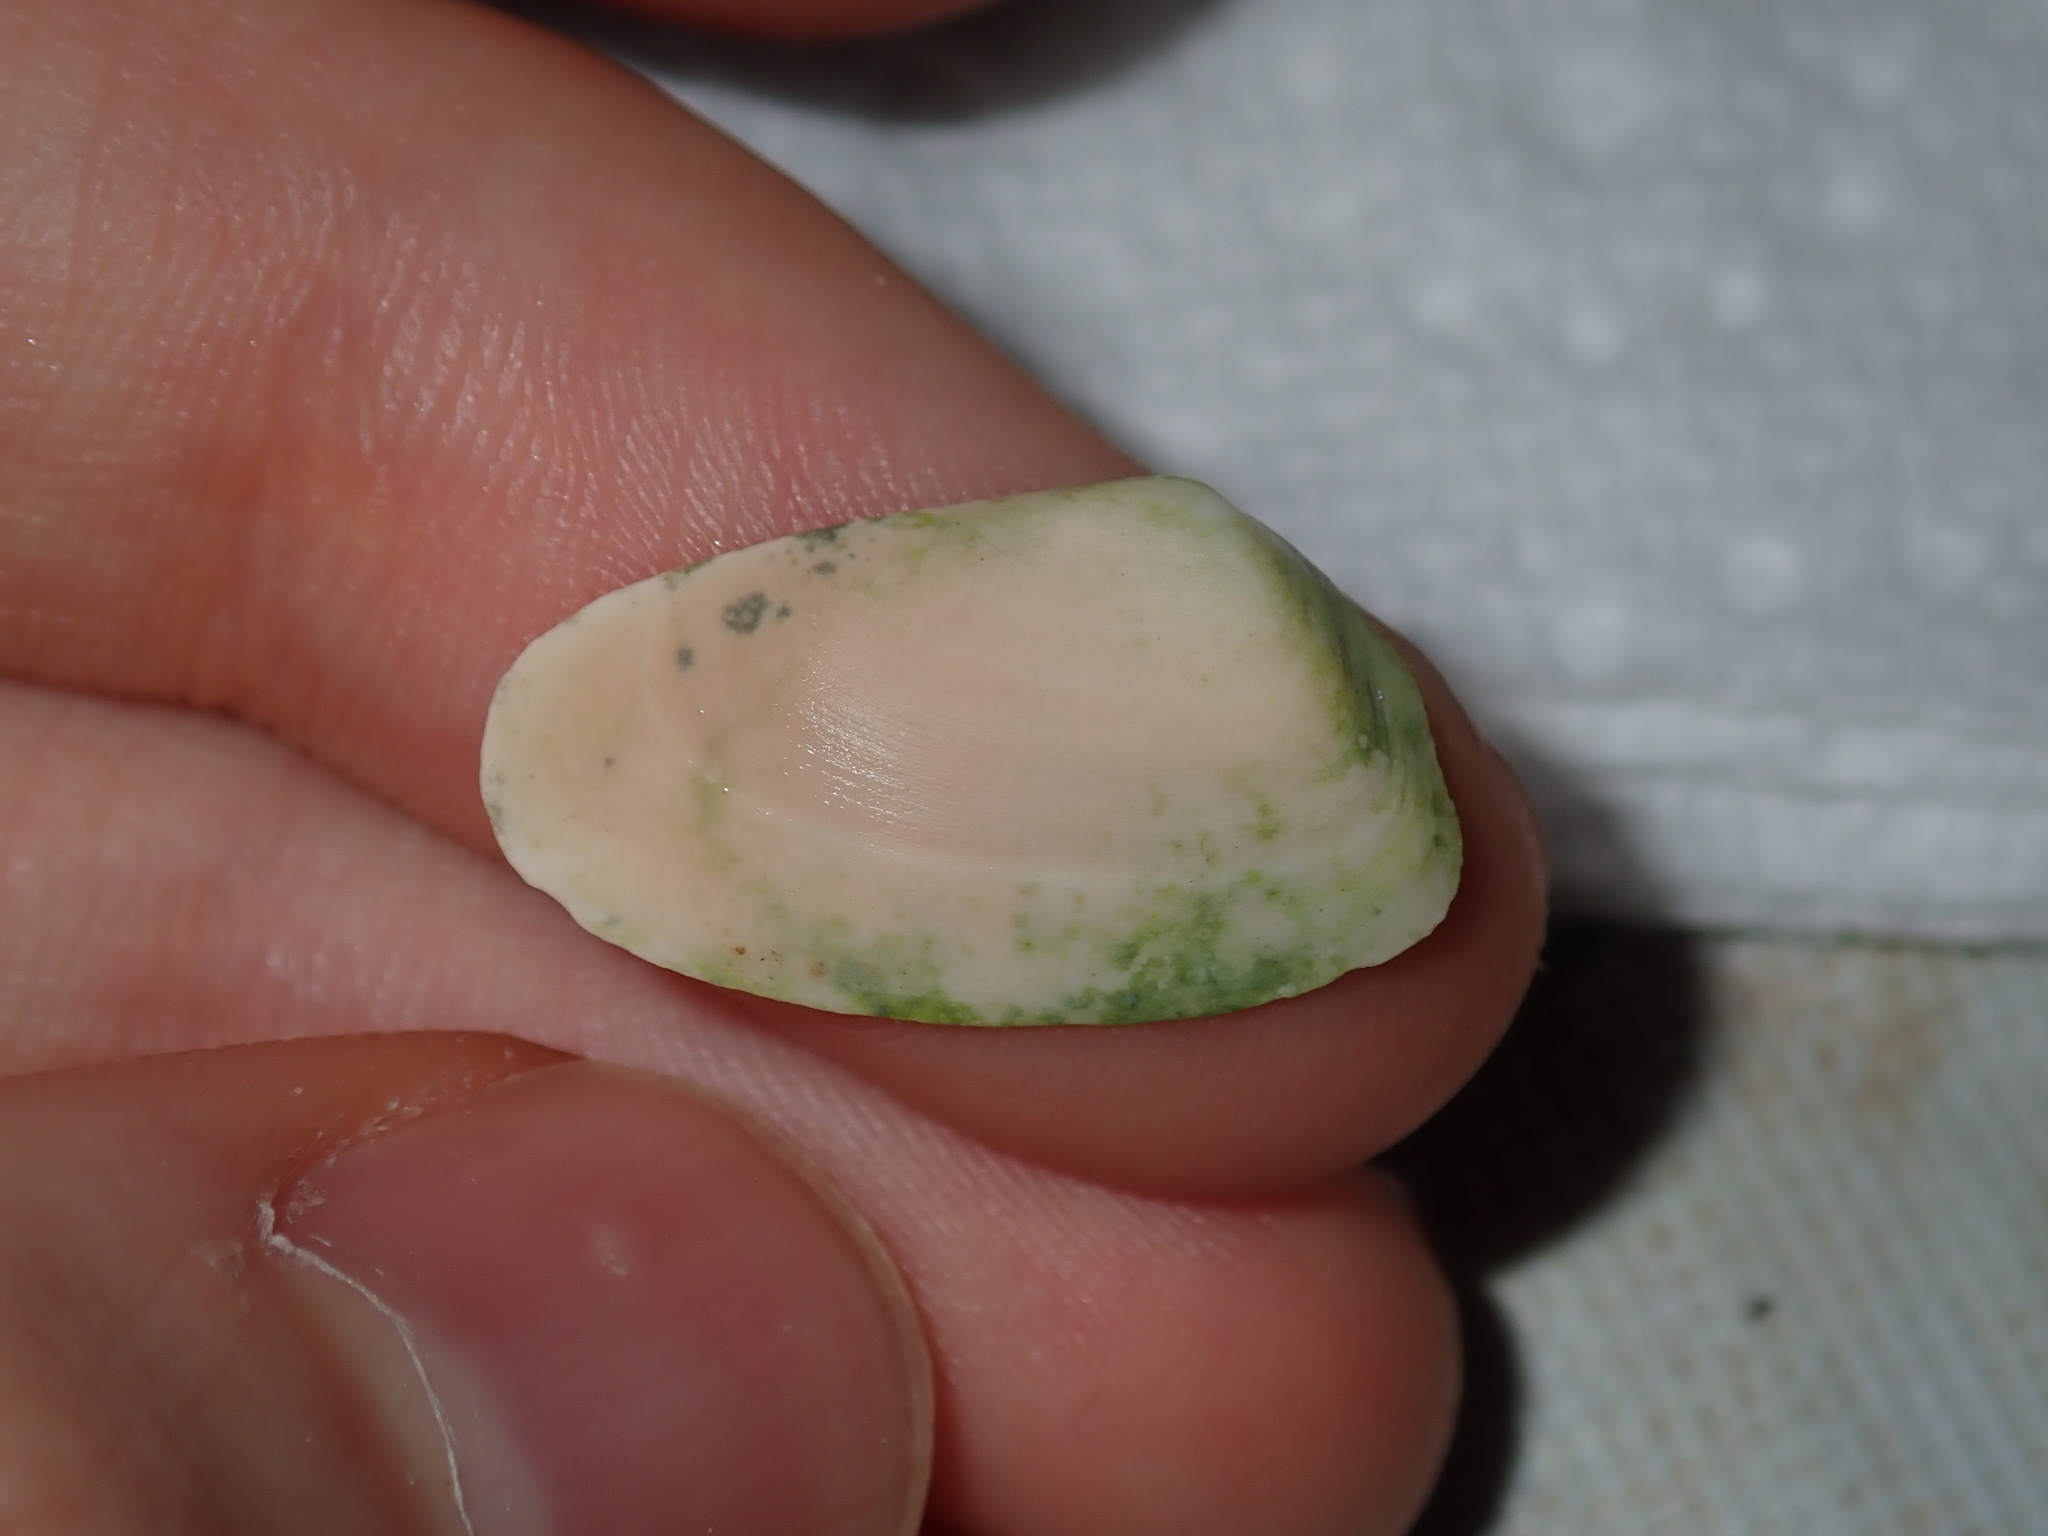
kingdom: Animalia
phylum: Mollusca
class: Bivalvia
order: Venerida
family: Mesodesmatidae
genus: Paphies
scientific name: Paphies angusta
